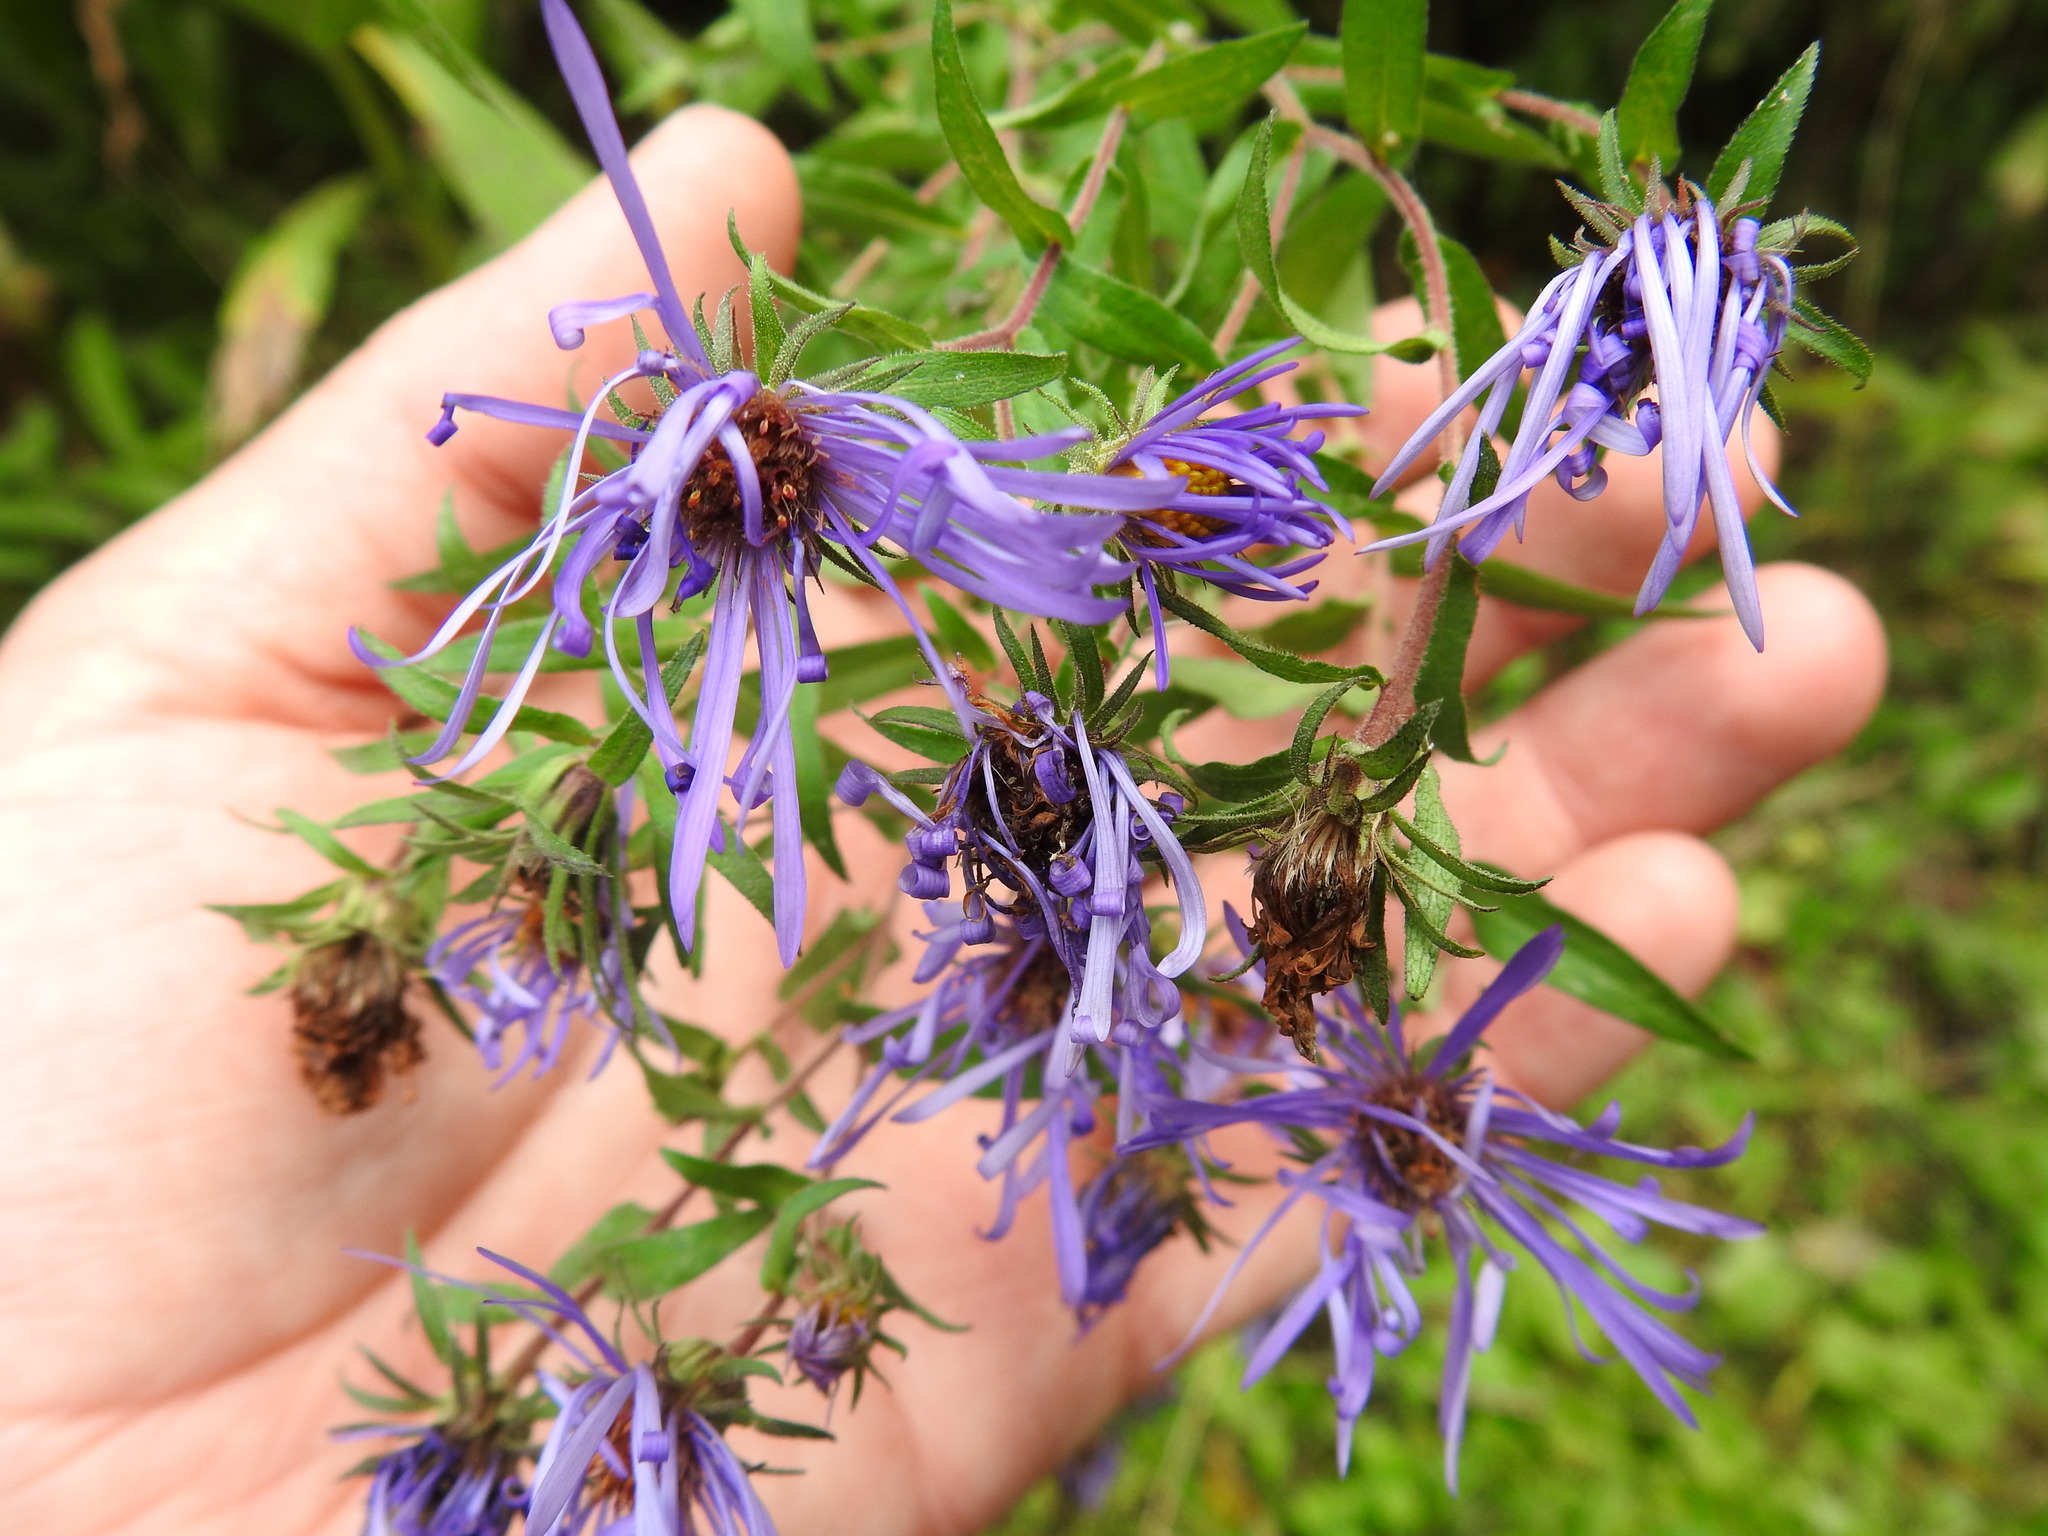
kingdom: Plantae
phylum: Tracheophyta
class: Magnoliopsida
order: Asterales
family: Asteraceae
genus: Symphyotrichum
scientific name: Symphyotrichum novae-angliae
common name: Michaelmas daisy
